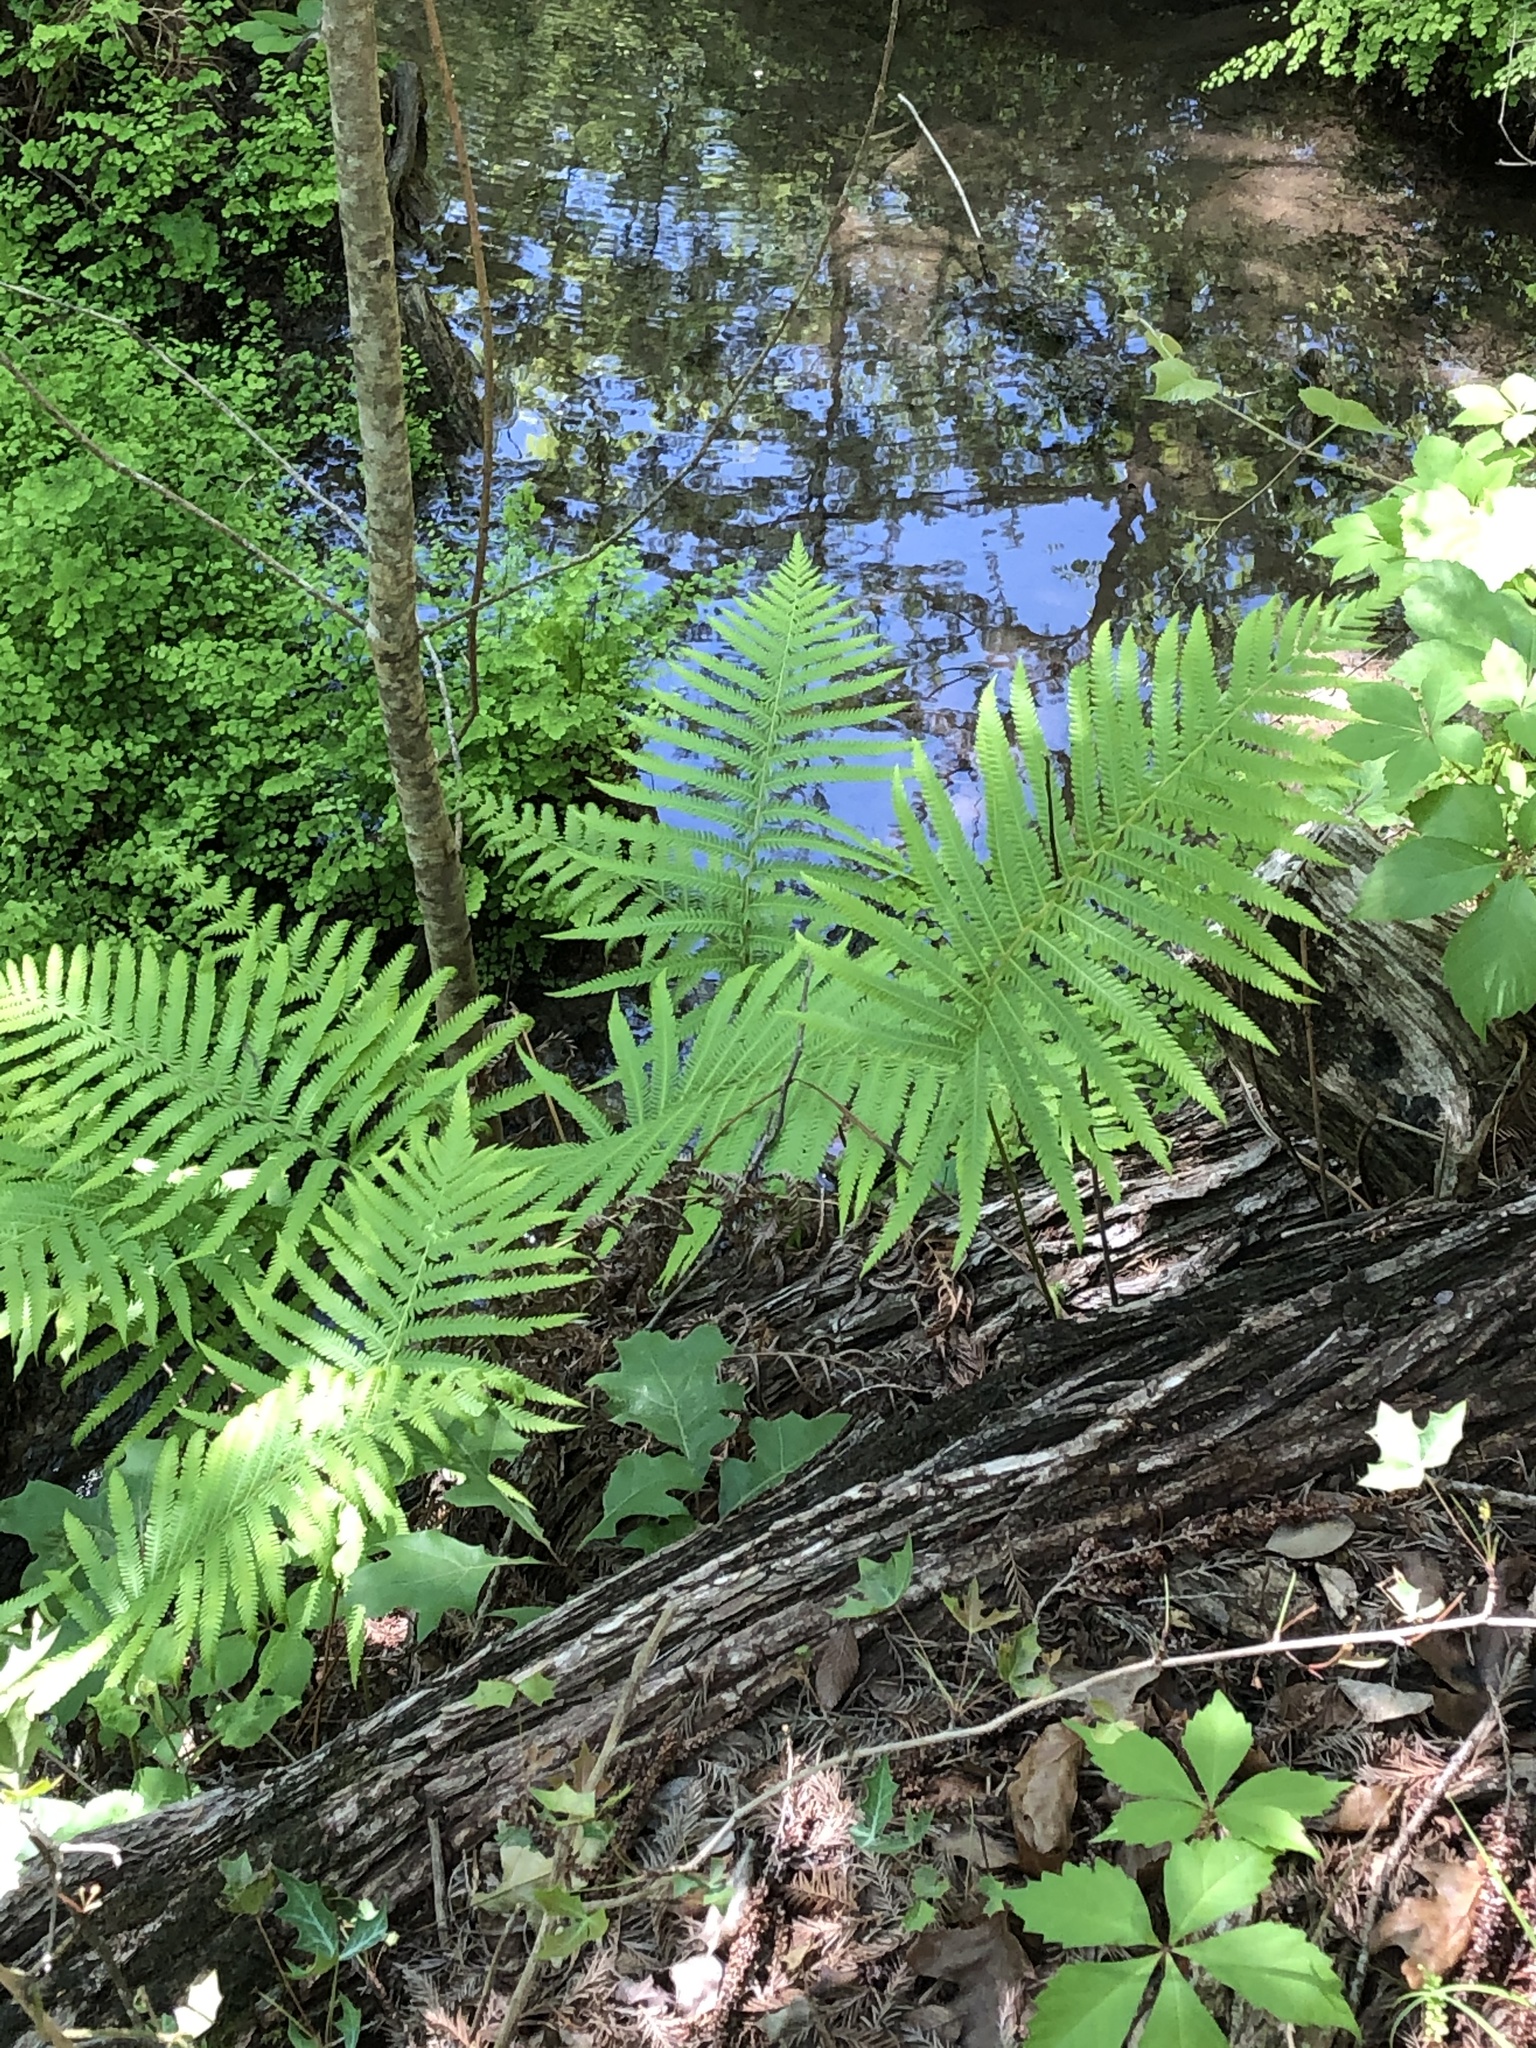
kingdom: Plantae
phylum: Tracheophyta
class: Polypodiopsida
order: Polypodiales
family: Thelypteridaceae
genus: Pelazoneuron
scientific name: Pelazoneuron ovatum
